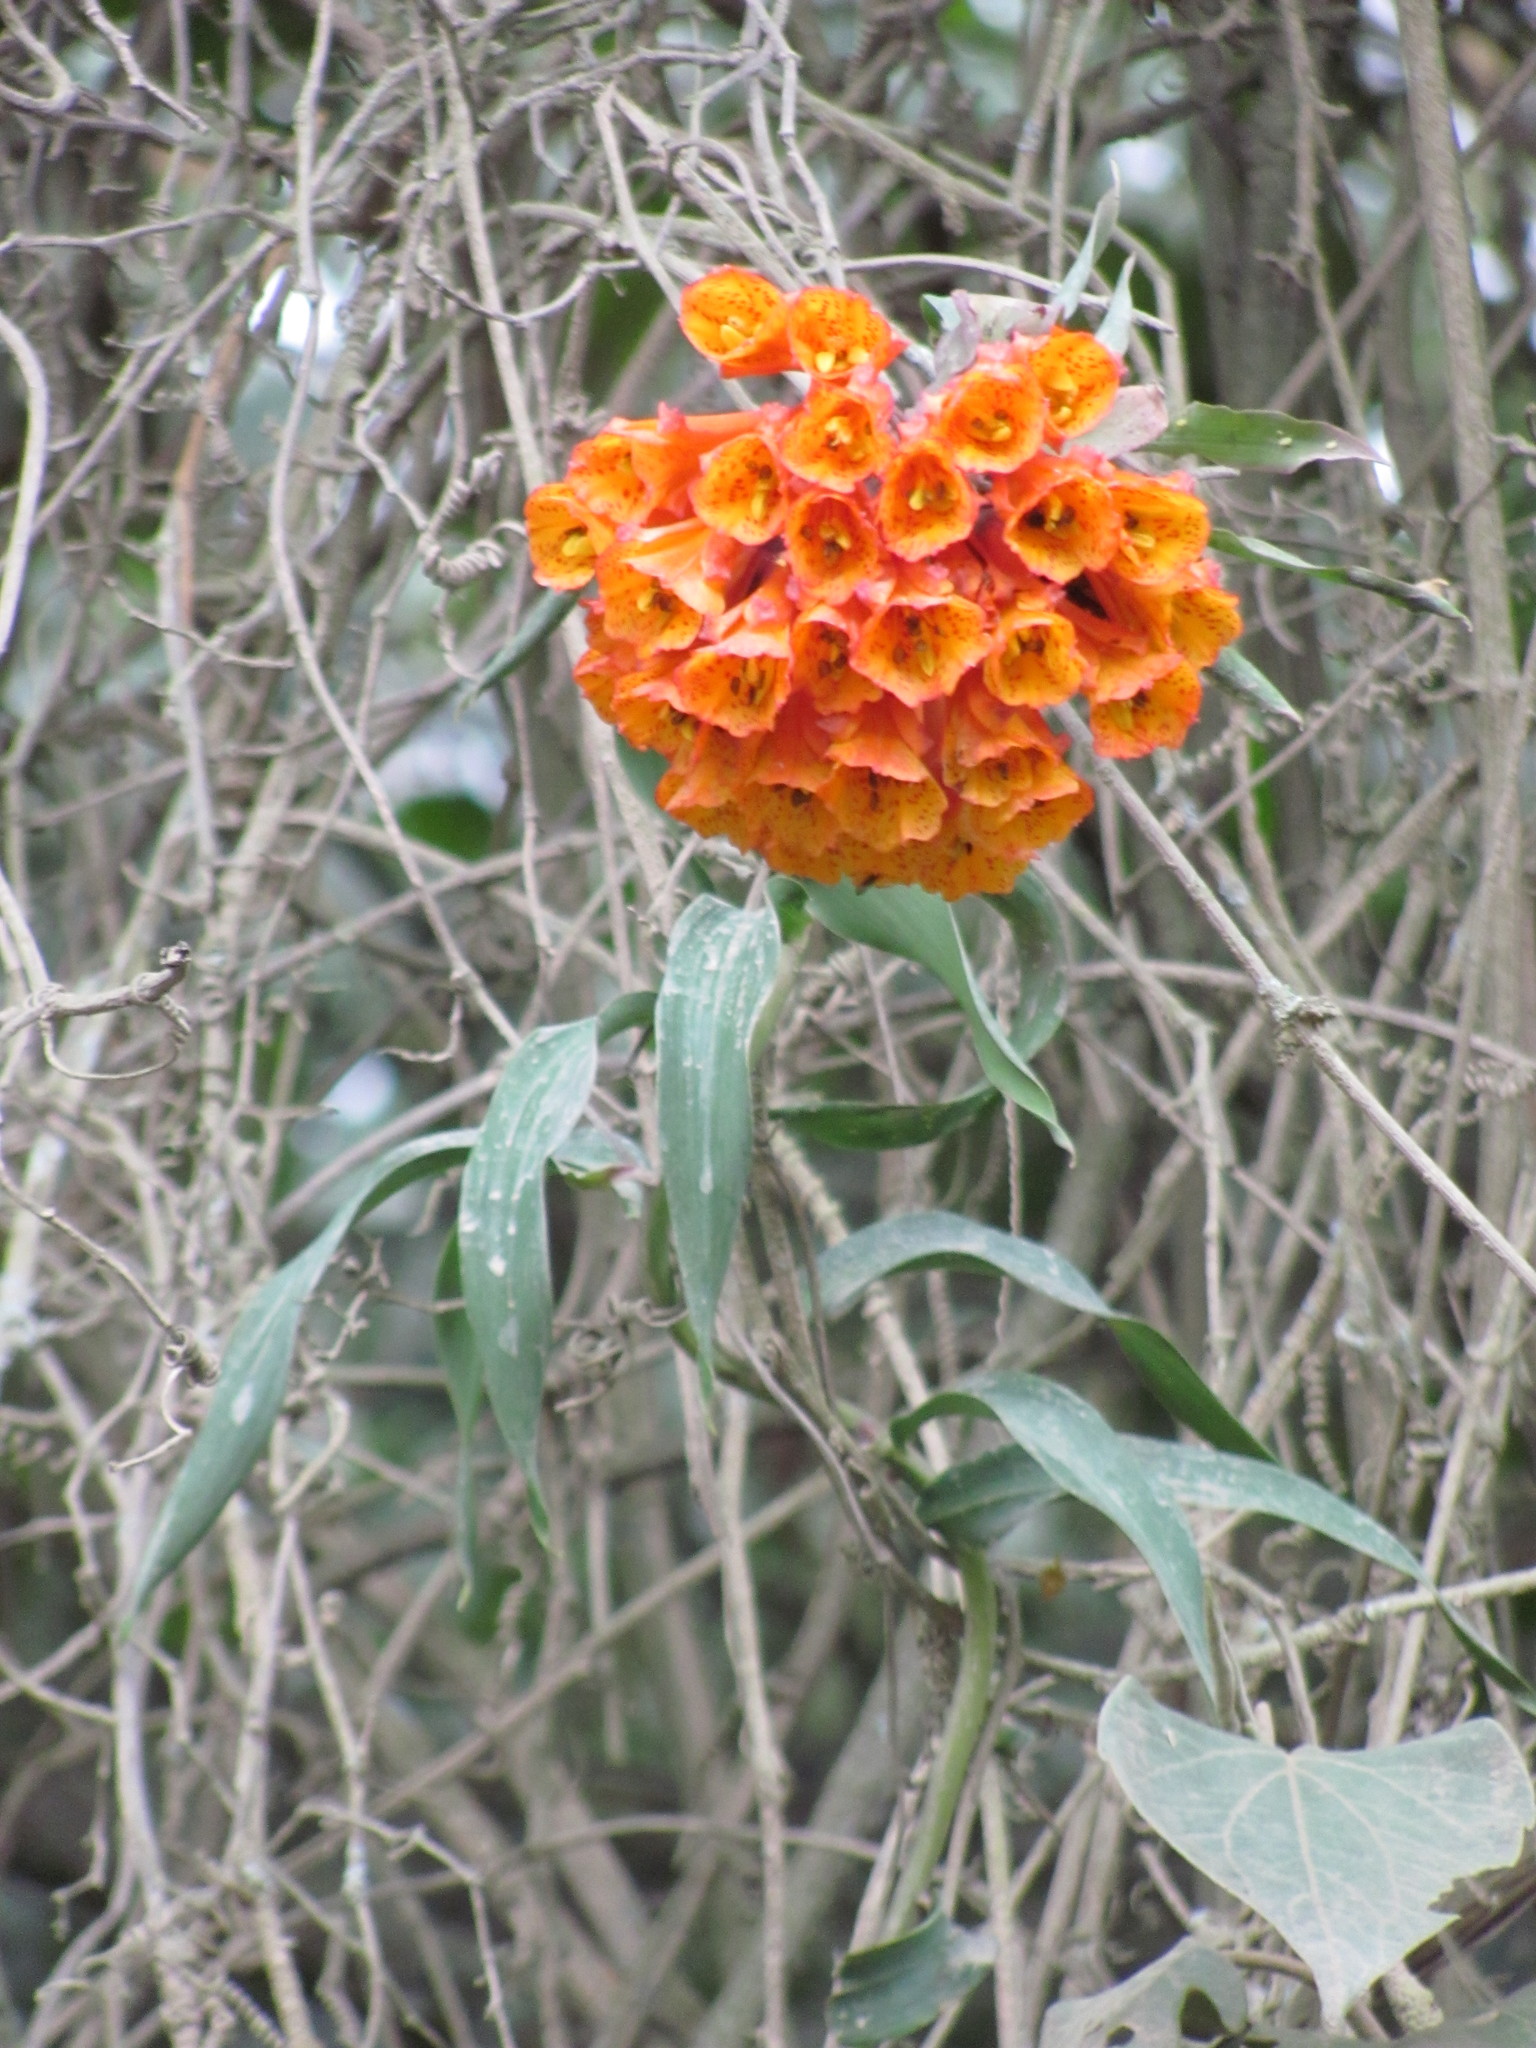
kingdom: Plantae
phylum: Tracheophyta
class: Liliopsida
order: Liliales
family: Alstroemeriaceae
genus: Bomarea
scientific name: Bomarea multiflora
